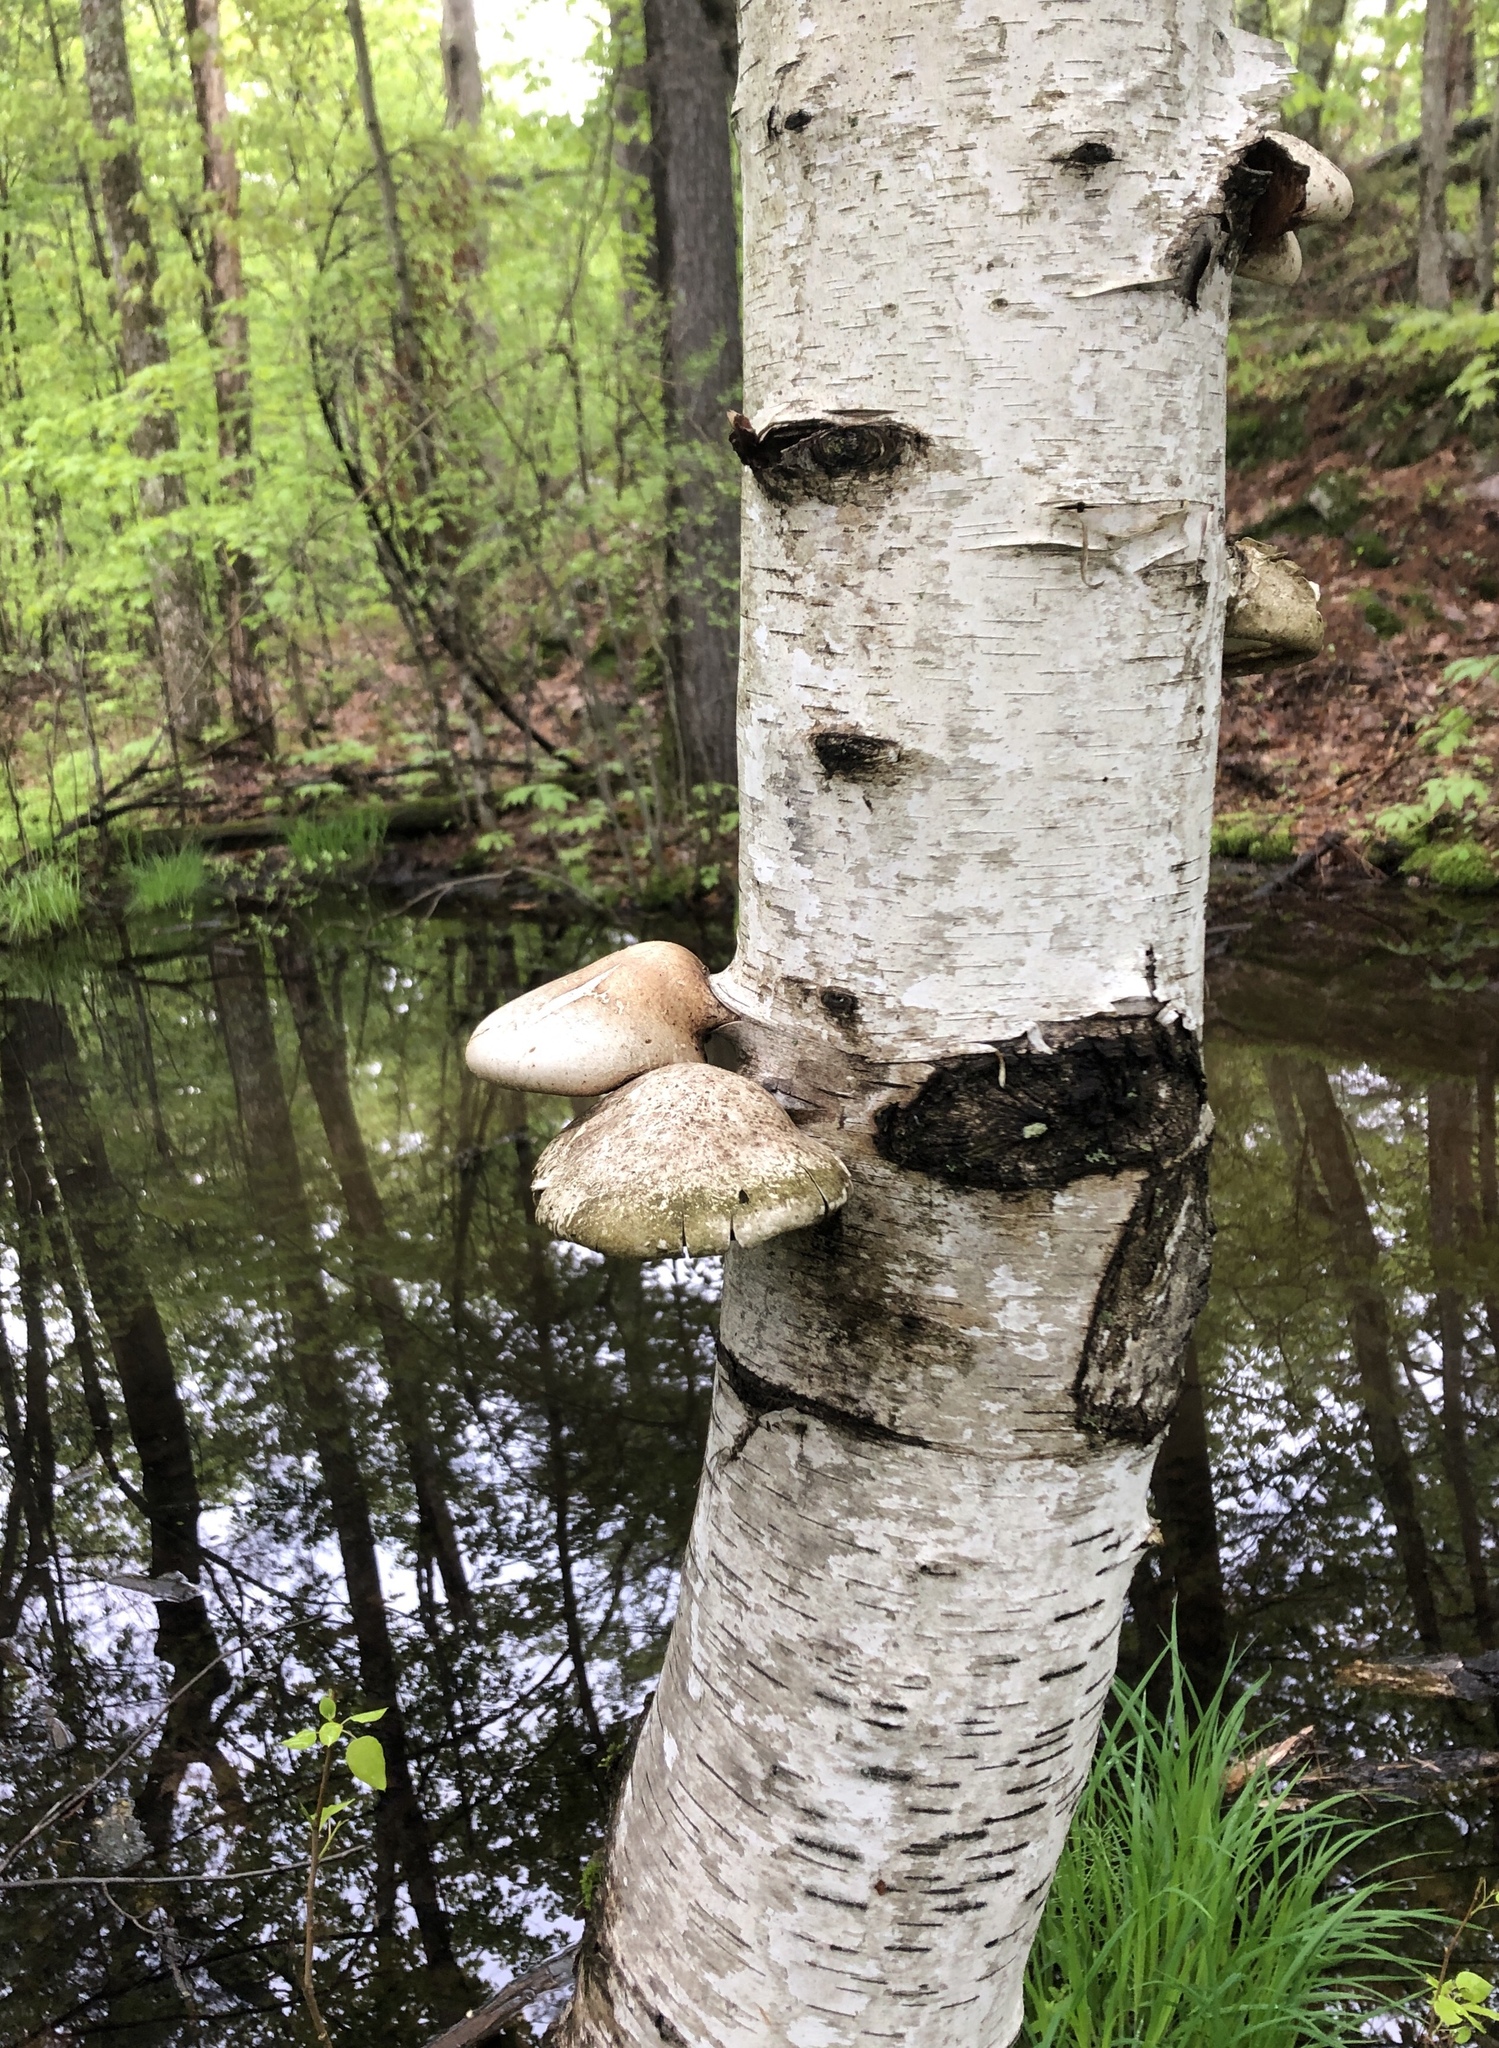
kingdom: Fungi
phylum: Basidiomycota
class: Agaricomycetes
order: Polyporales
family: Fomitopsidaceae
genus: Fomitopsis
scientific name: Fomitopsis betulina
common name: Birch polypore
